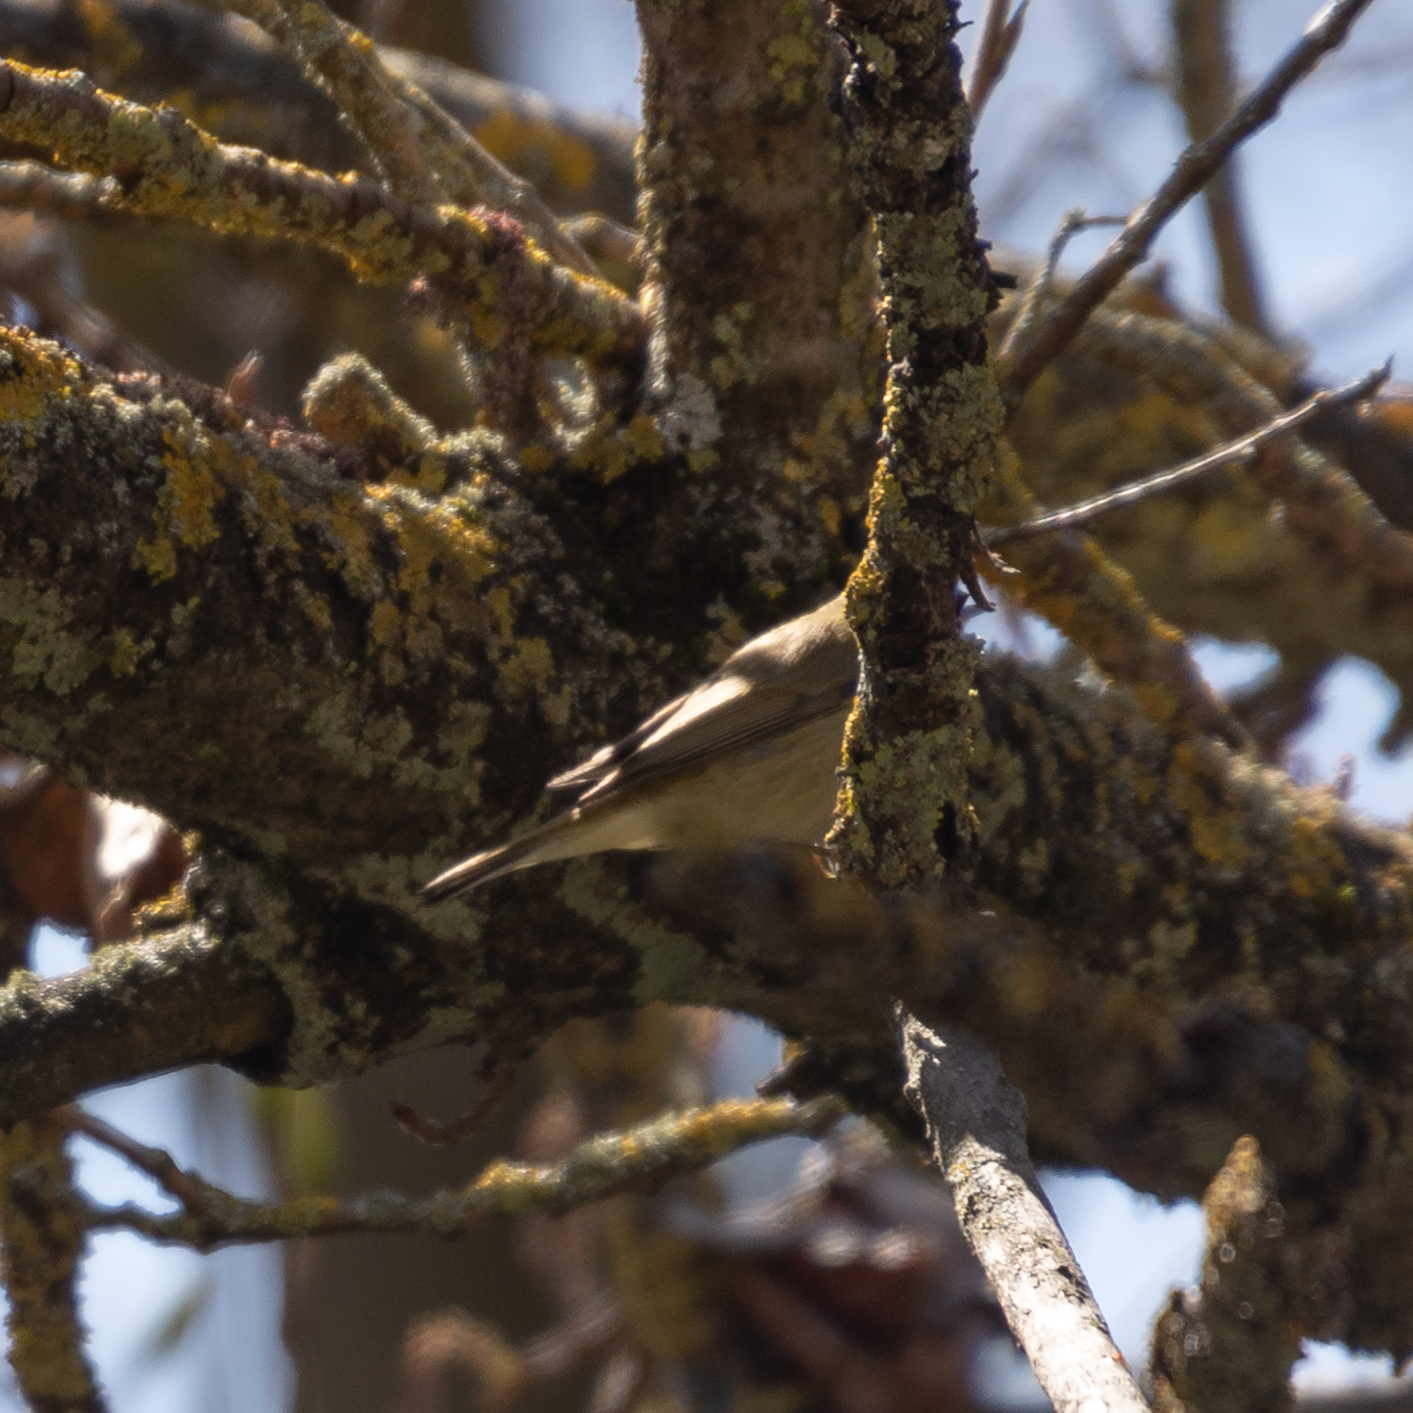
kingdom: Animalia
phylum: Chordata
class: Aves
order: Passeriformes
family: Phylloscopidae
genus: Phylloscopus
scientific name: Phylloscopus ibericus
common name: Iberian chiffchaff
